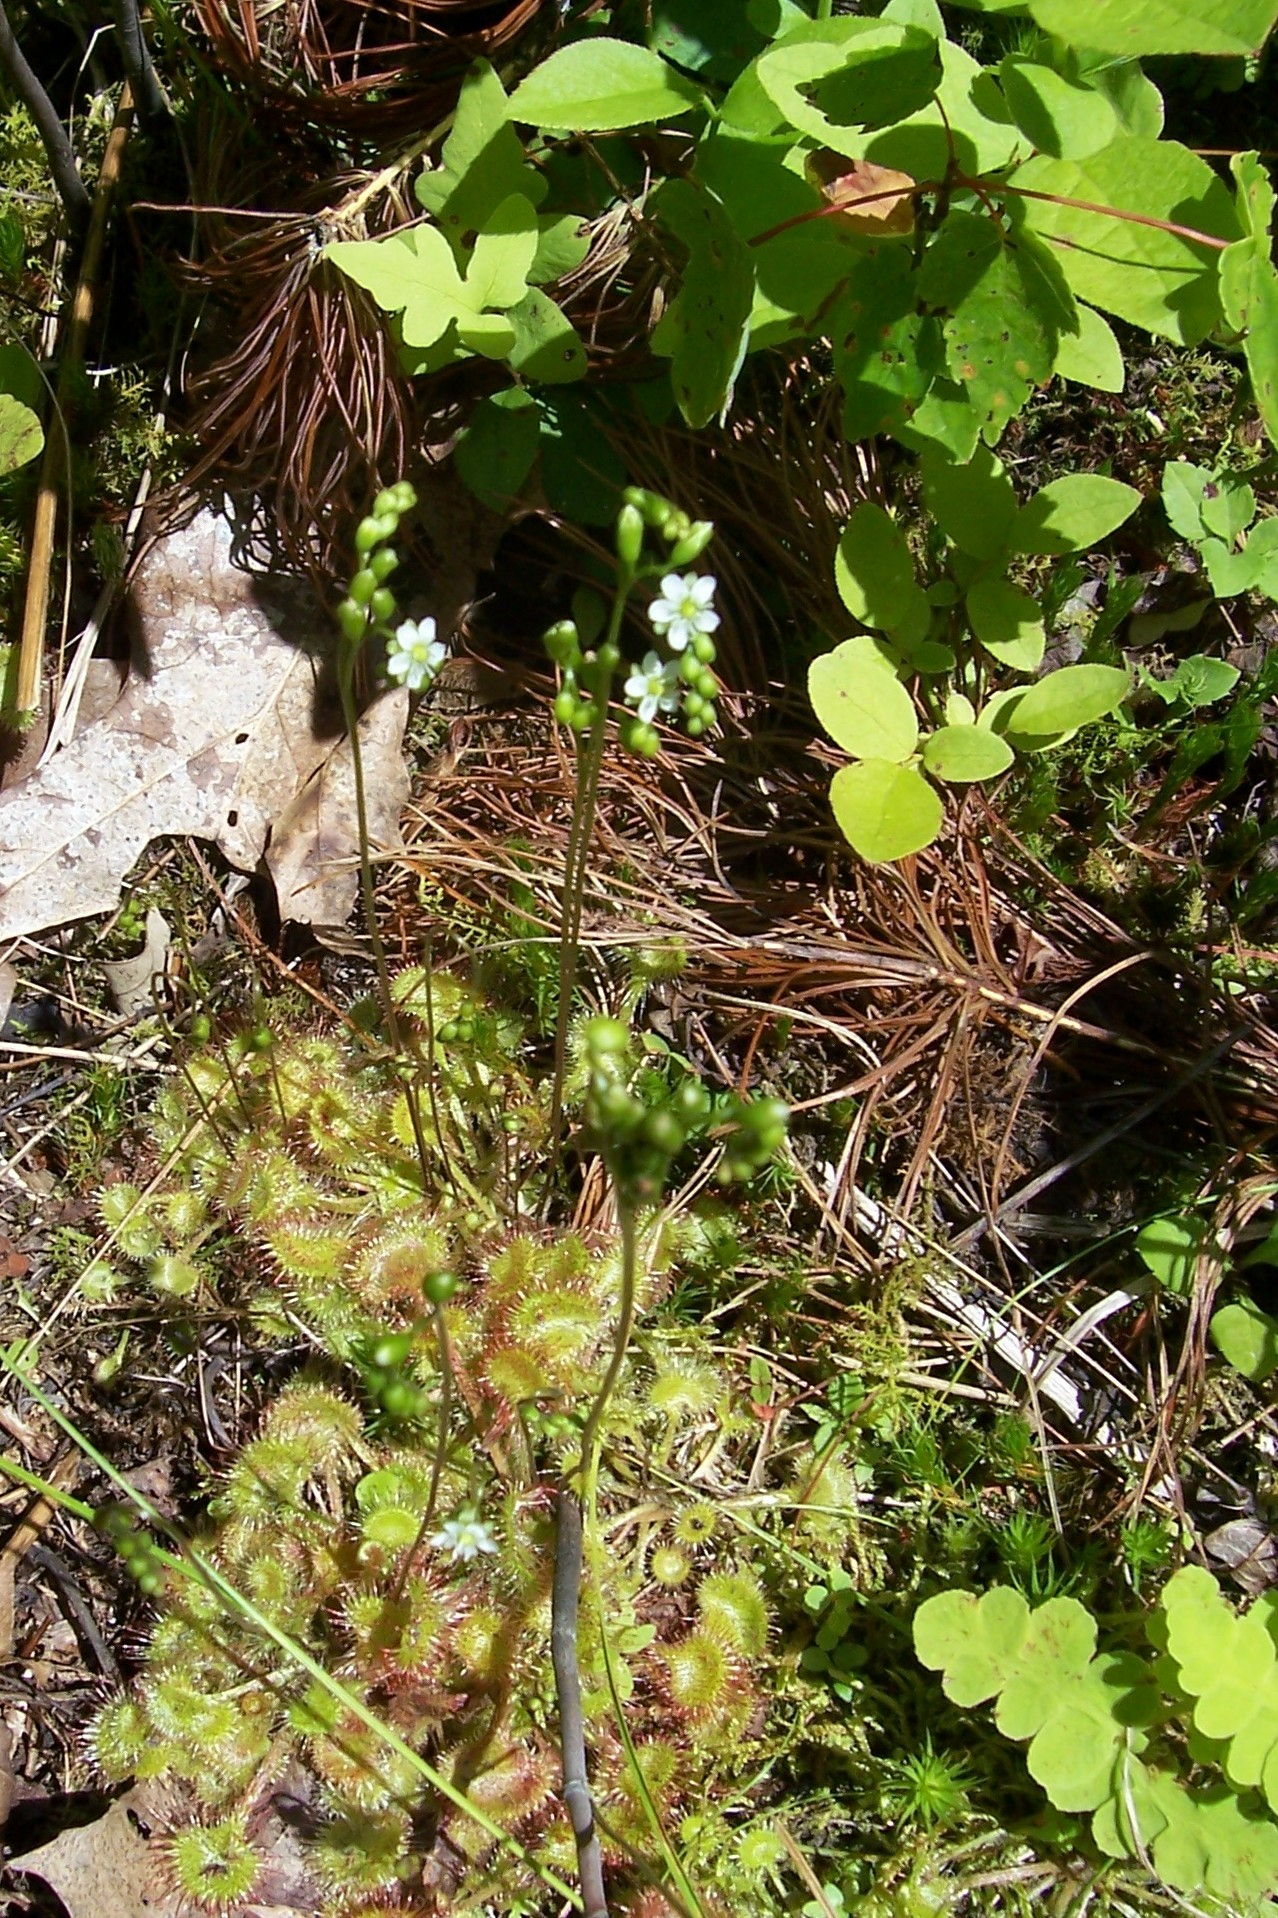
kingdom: Plantae
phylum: Tracheophyta
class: Magnoliopsida
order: Caryophyllales
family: Droseraceae
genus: Drosera
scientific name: Drosera rotundifolia
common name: Round-leaved sundew
